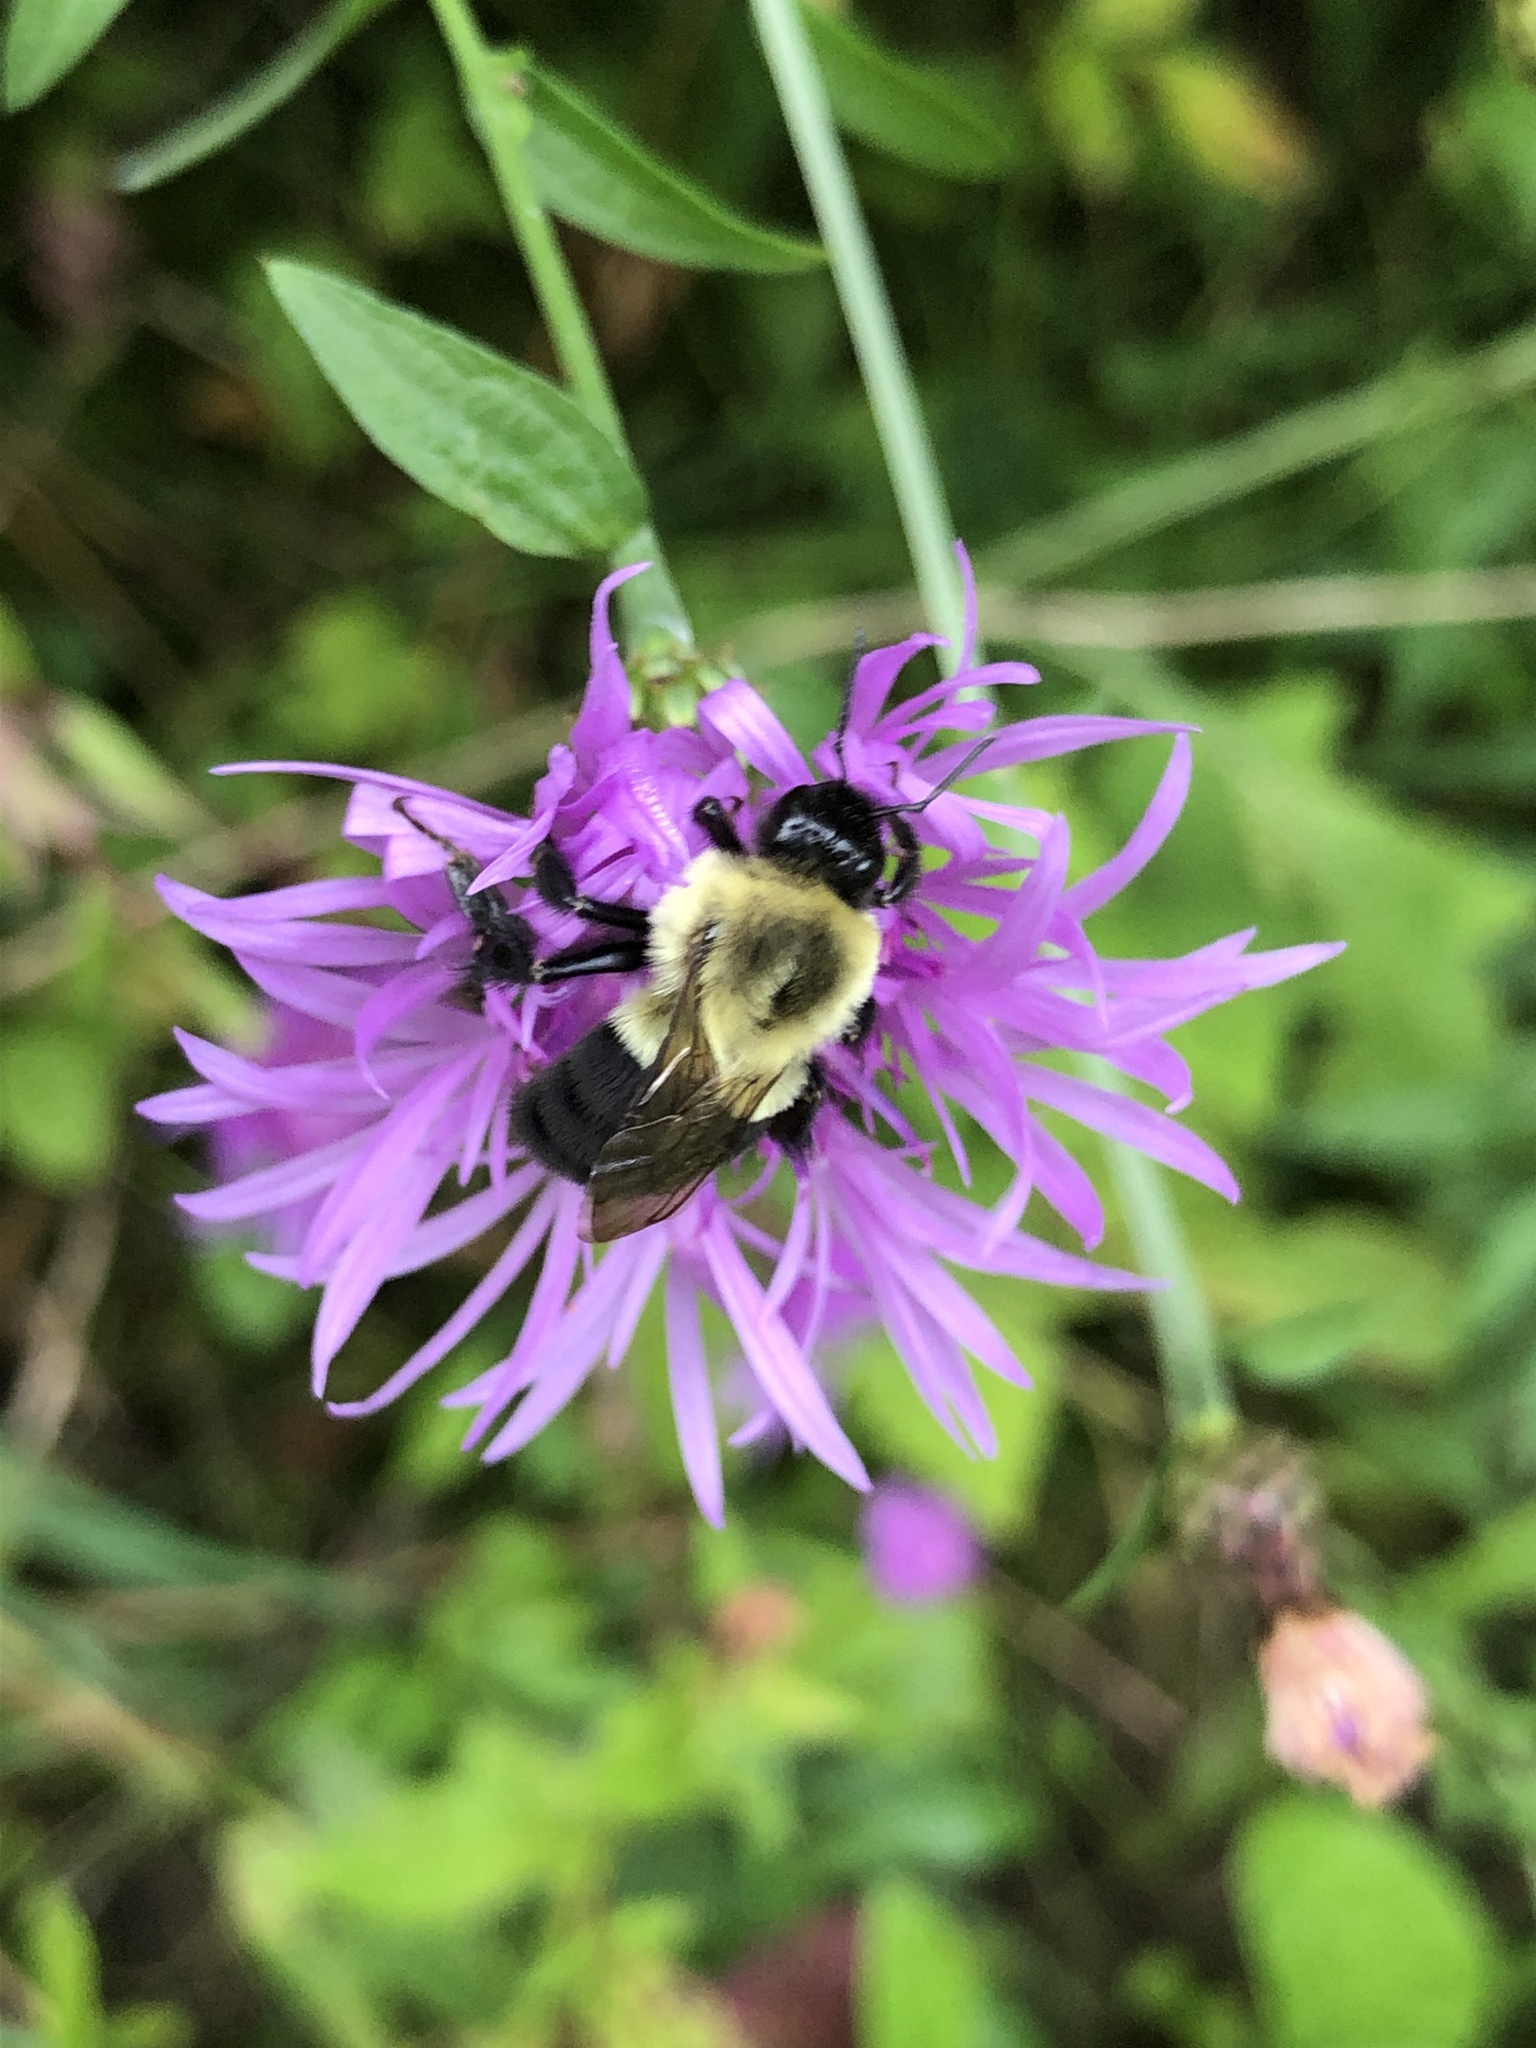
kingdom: Animalia
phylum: Arthropoda
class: Insecta
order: Hymenoptera
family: Apidae
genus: Bombus
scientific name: Bombus impatiens
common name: Common eastern bumble bee
